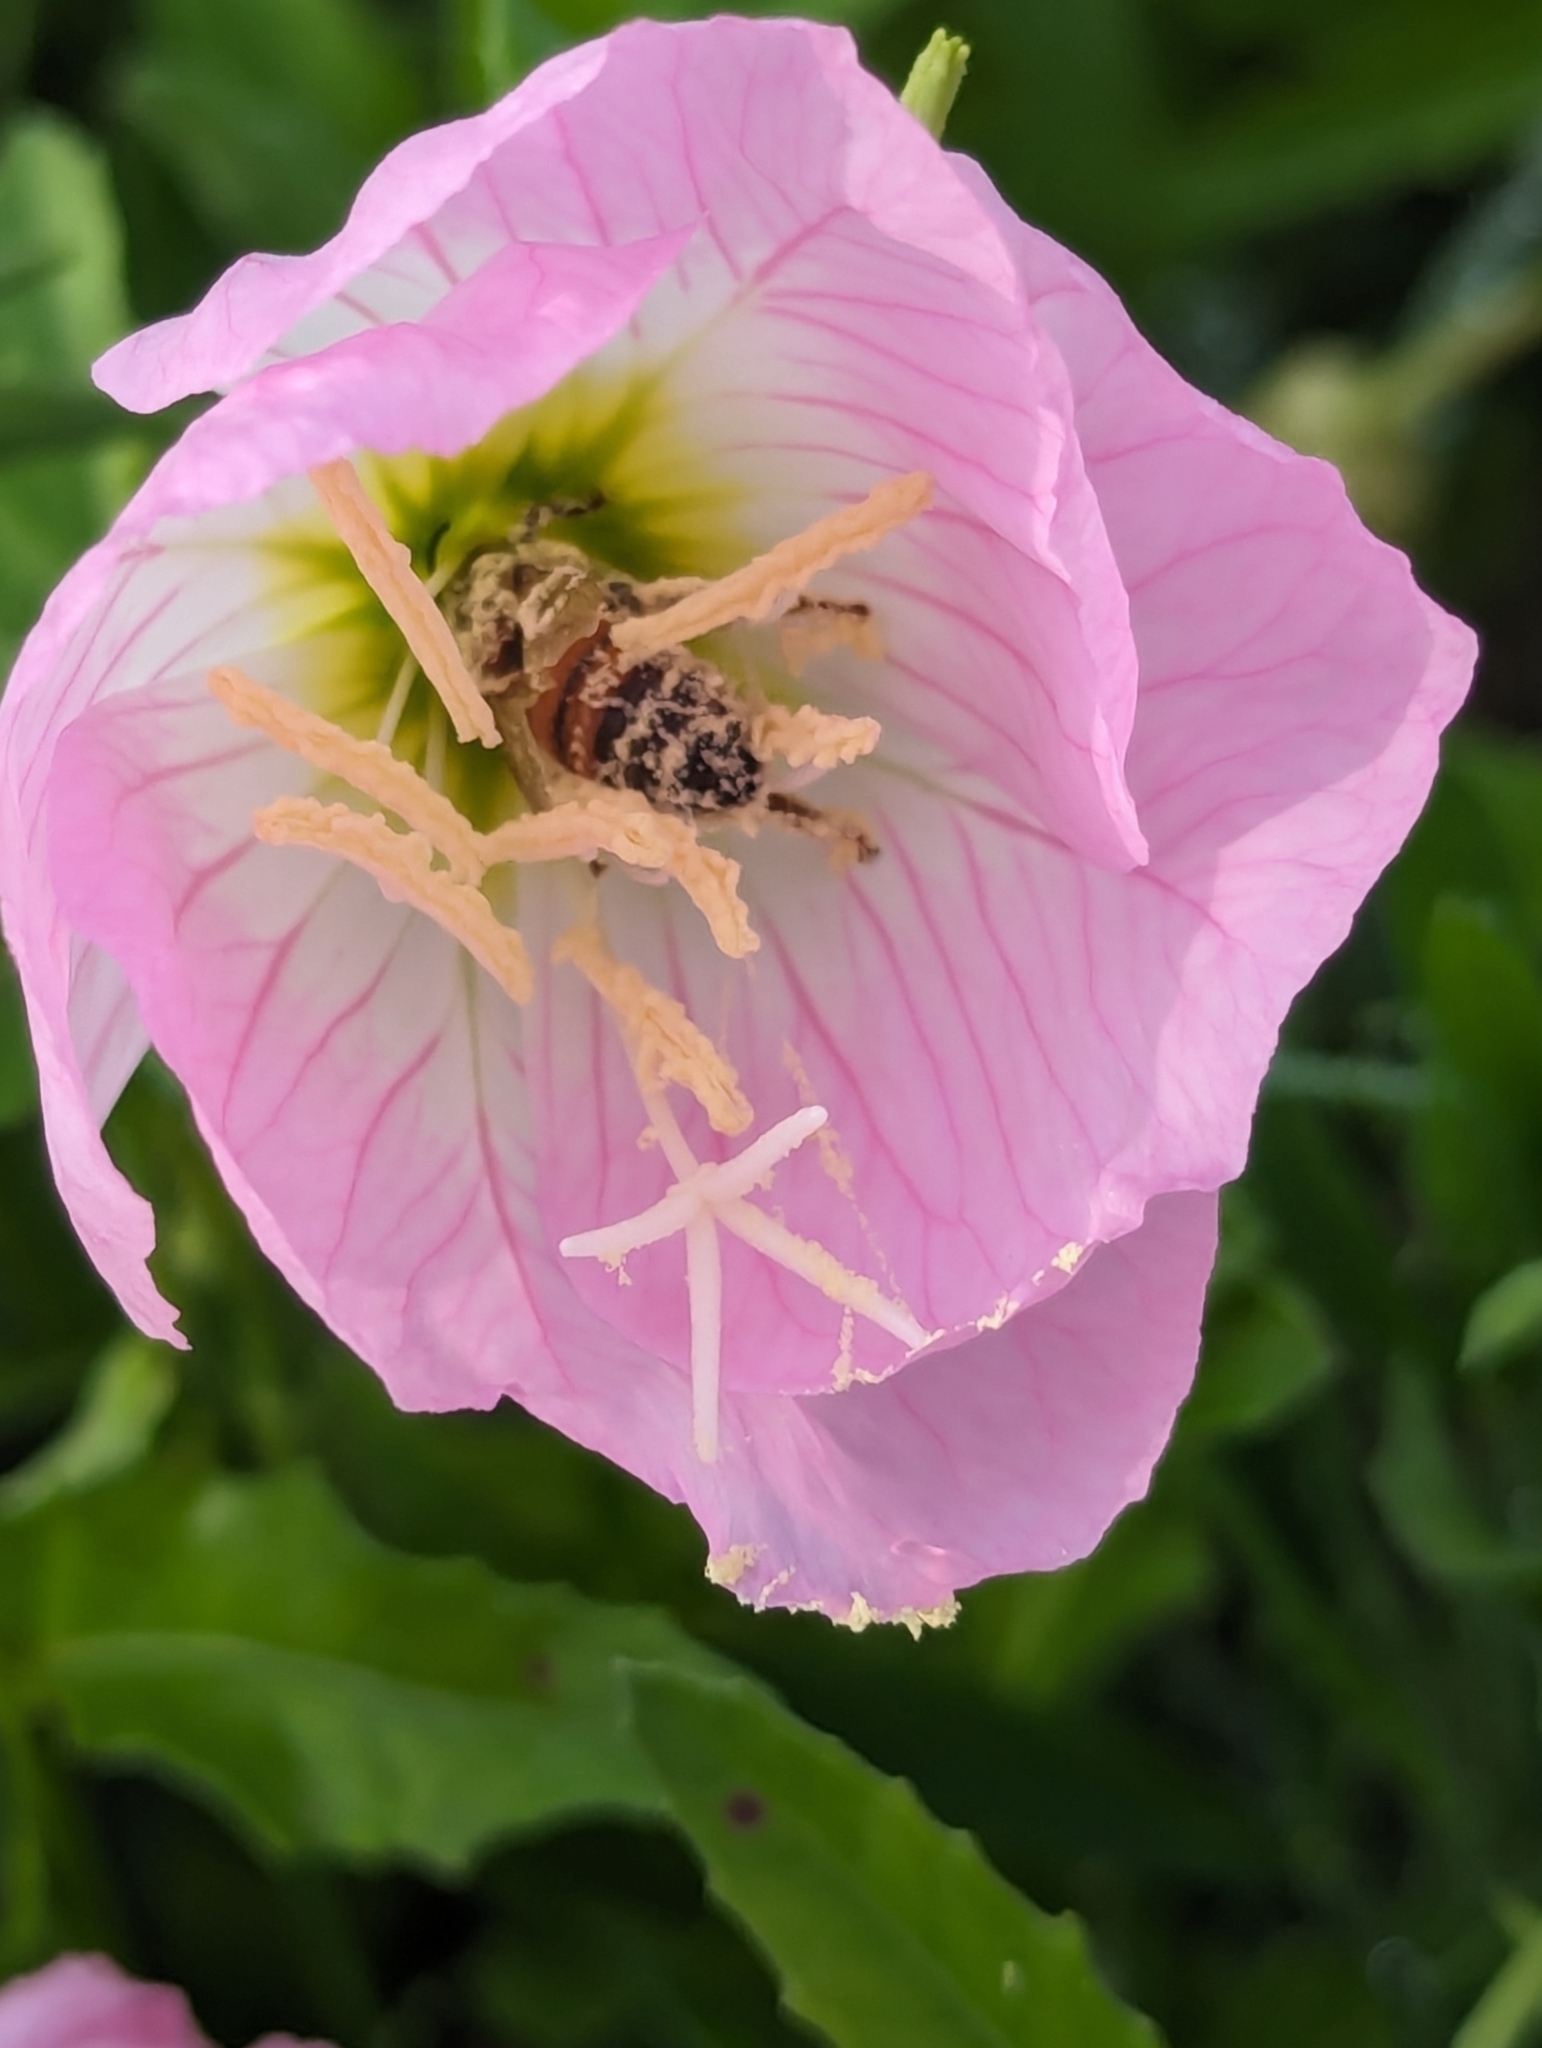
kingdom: Animalia
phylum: Arthropoda
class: Insecta
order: Hymenoptera
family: Apidae
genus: Apis
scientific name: Apis mellifera
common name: Honey bee
